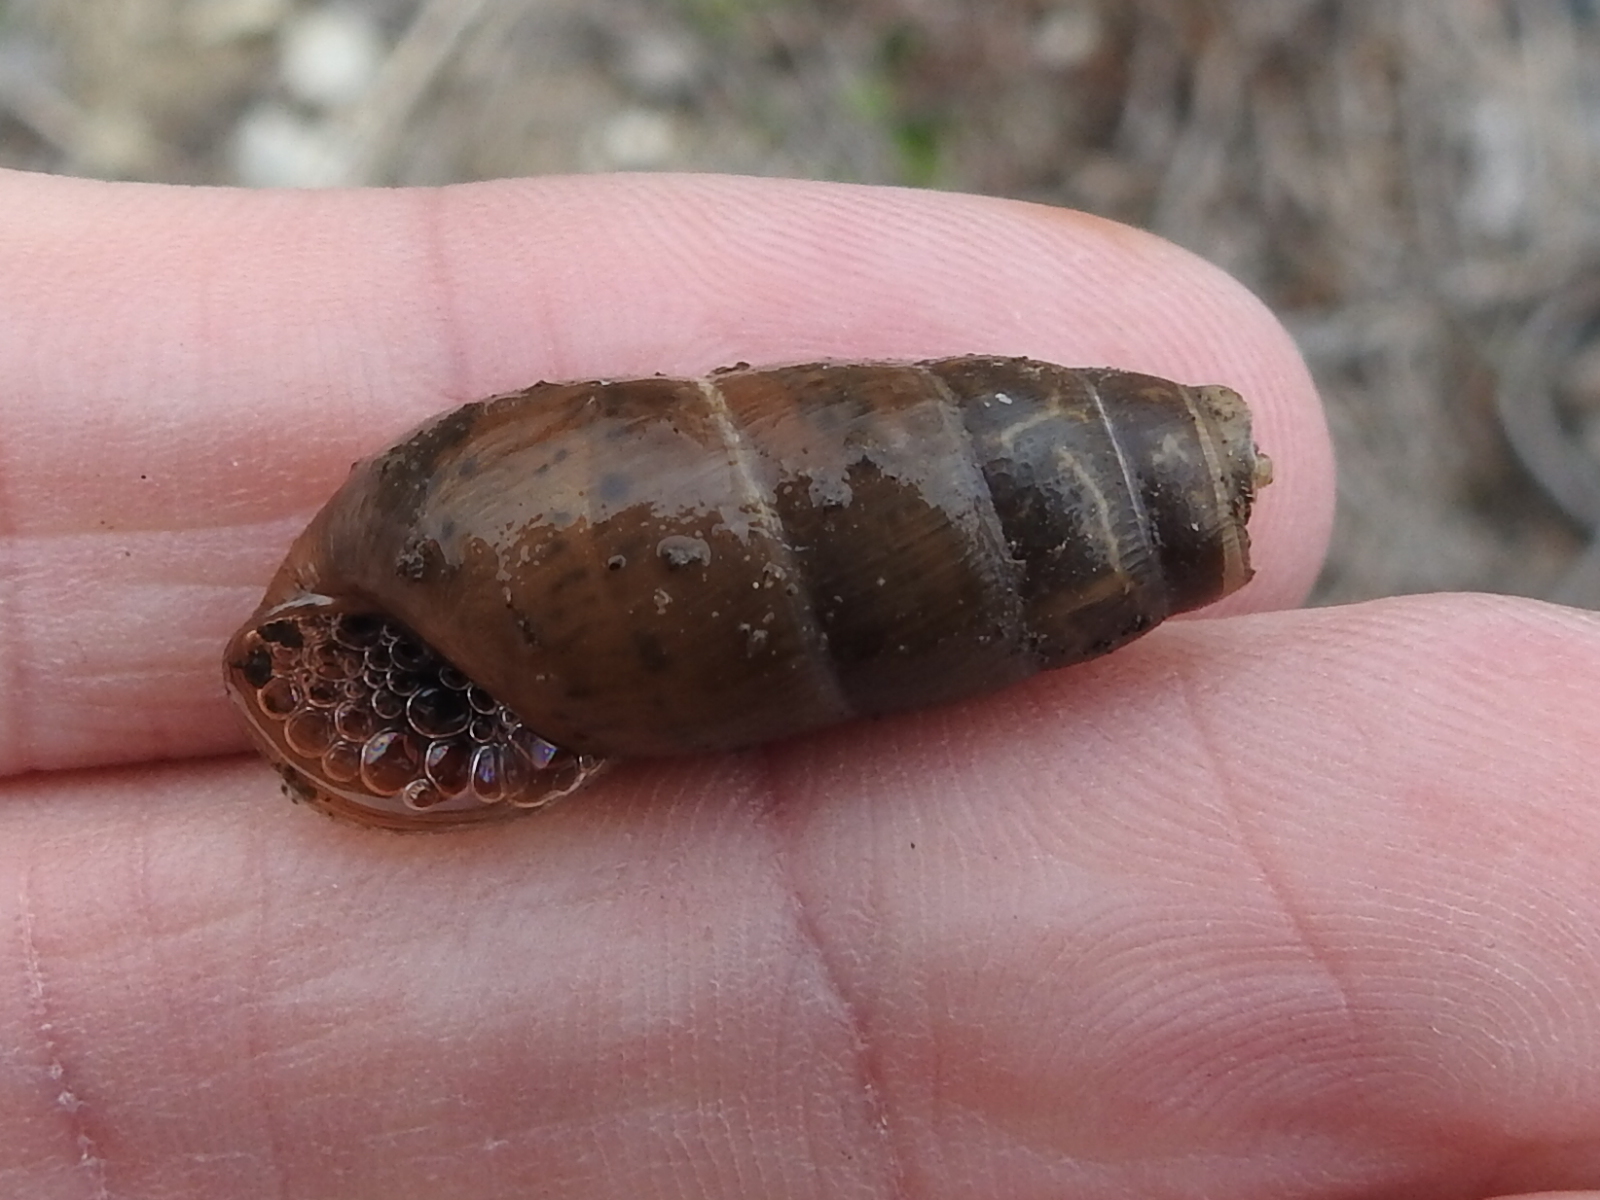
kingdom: Animalia
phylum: Mollusca
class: Gastropoda
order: Stylommatophora
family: Achatinidae
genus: Rumina
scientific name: Rumina decollata
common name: Decollate snail
